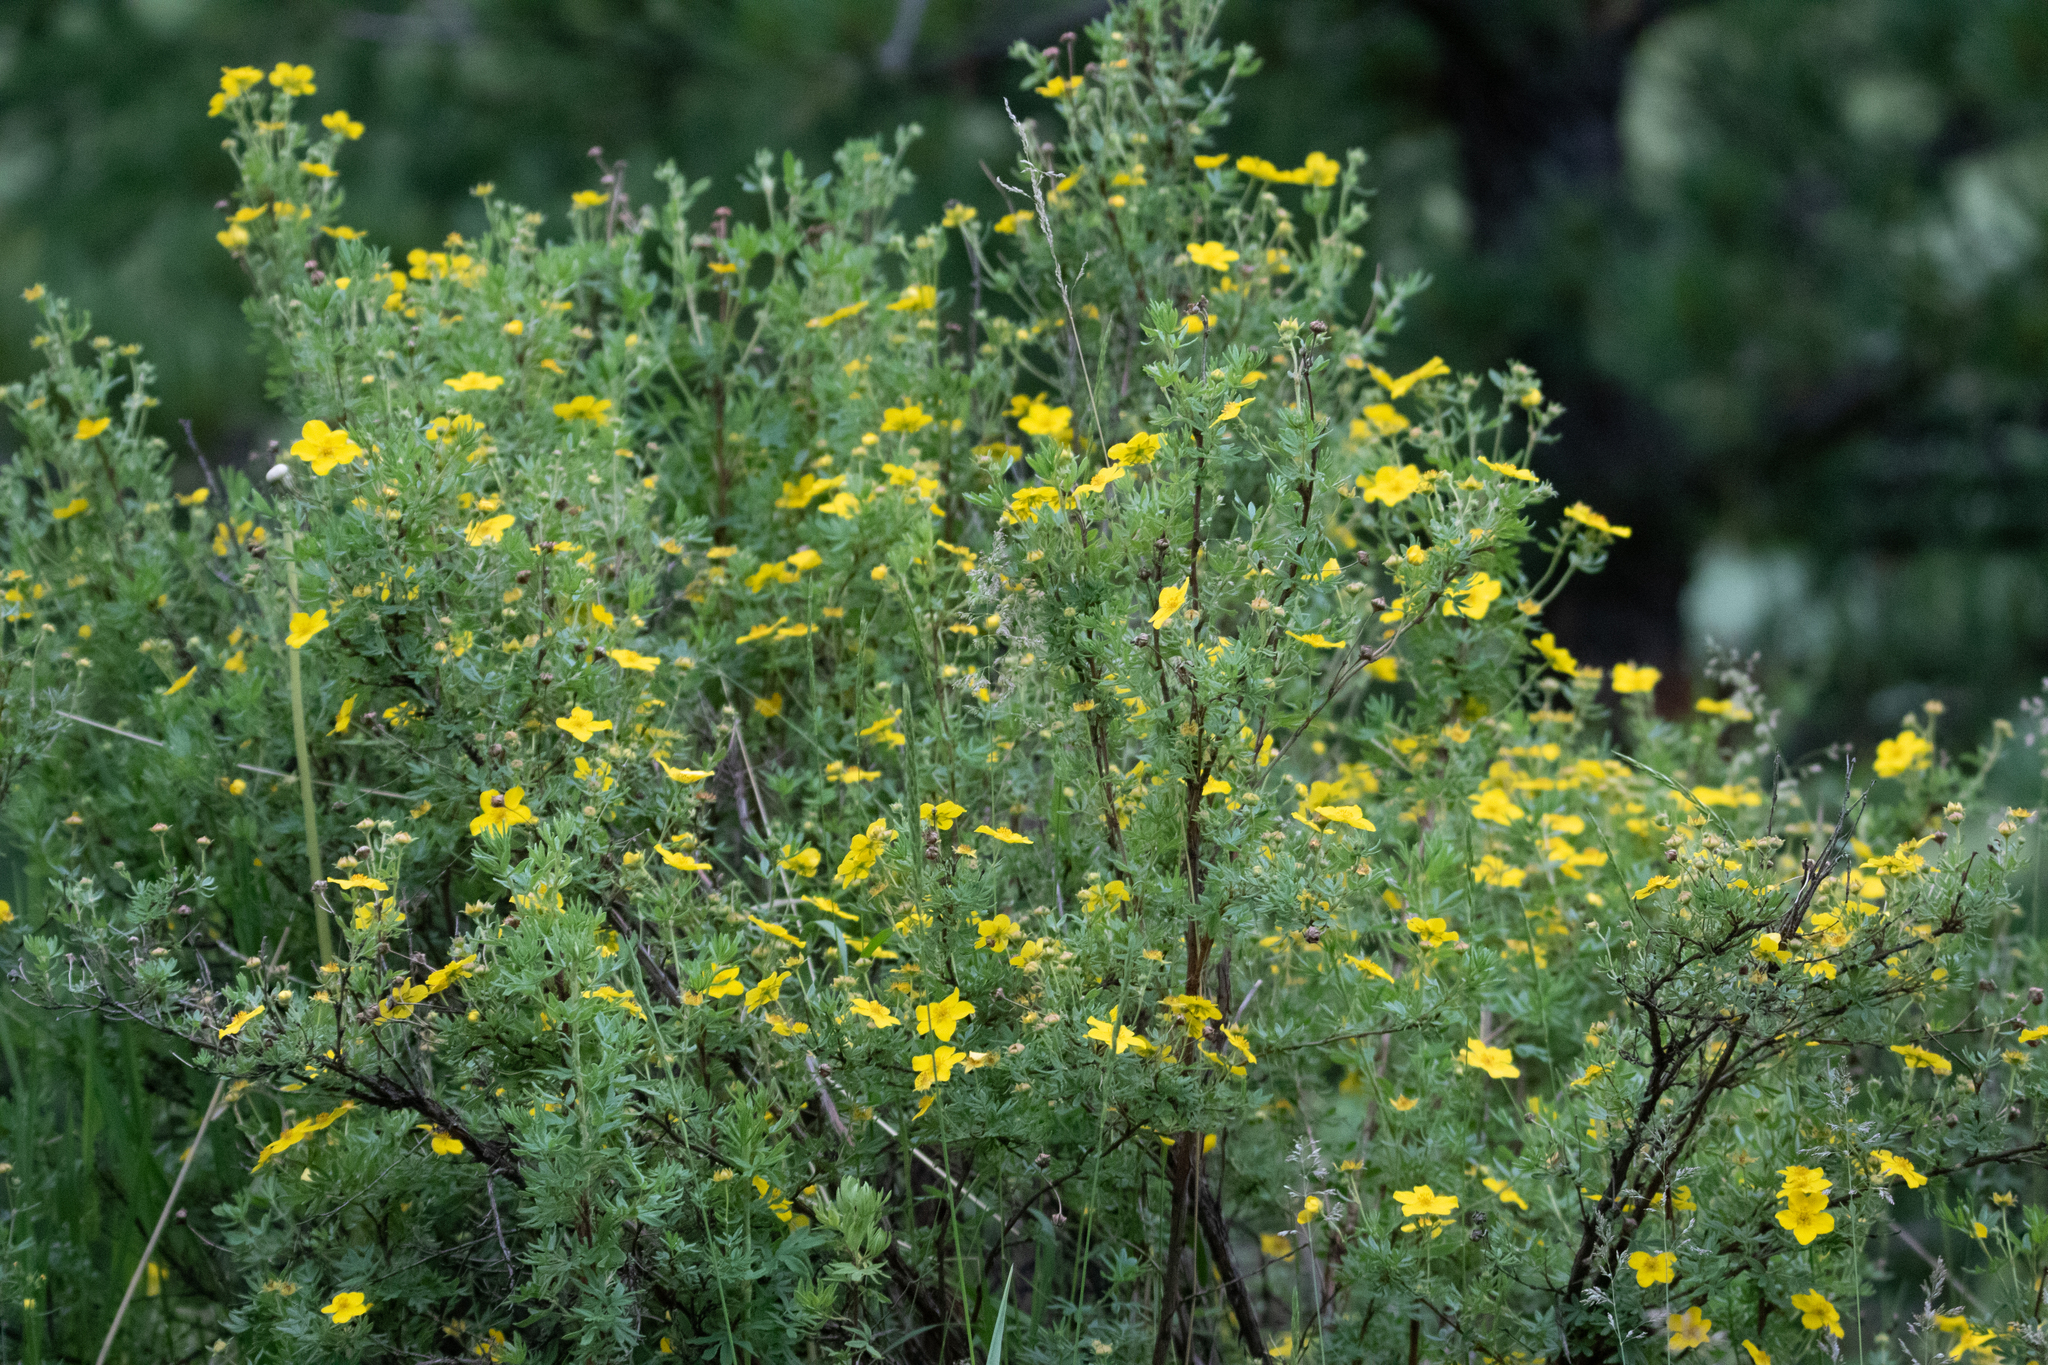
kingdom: Plantae
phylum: Tracheophyta
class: Magnoliopsida
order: Rosales
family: Rosaceae
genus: Dasiphora
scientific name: Dasiphora fruticosa
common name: Shrubby cinquefoil
